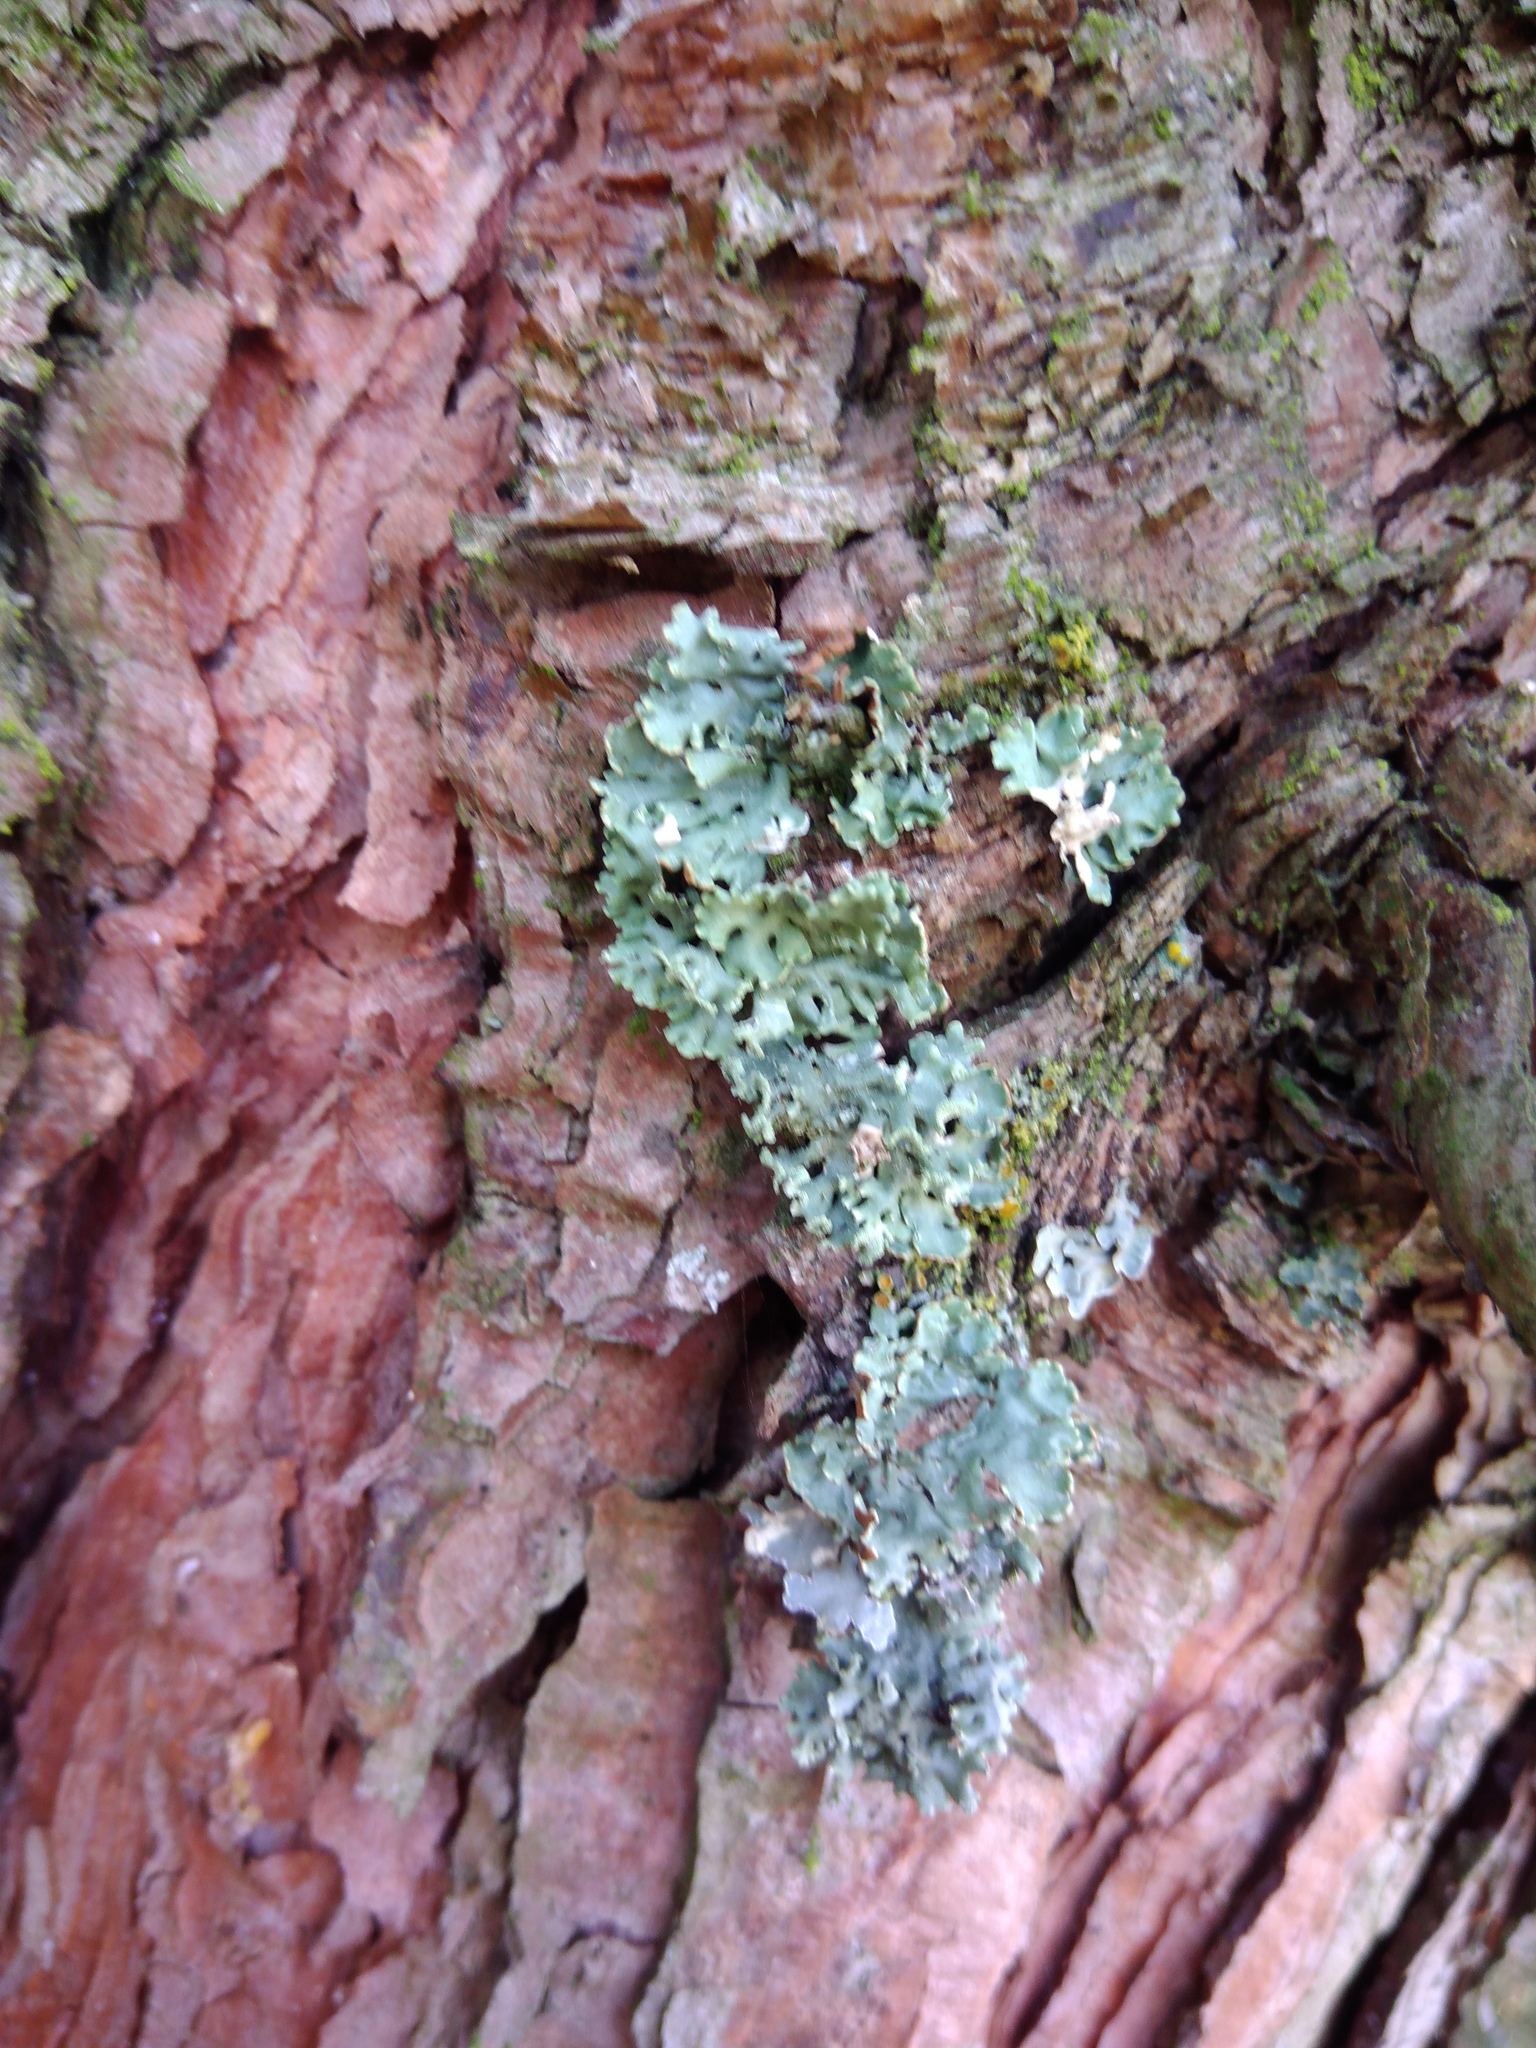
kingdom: Fungi
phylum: Ascomycota
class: Lecanoromycetes
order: Lecanorales
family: Parmeliaceae
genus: Hypogymnia
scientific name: Hypogymnia physodes
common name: Dark crottle
